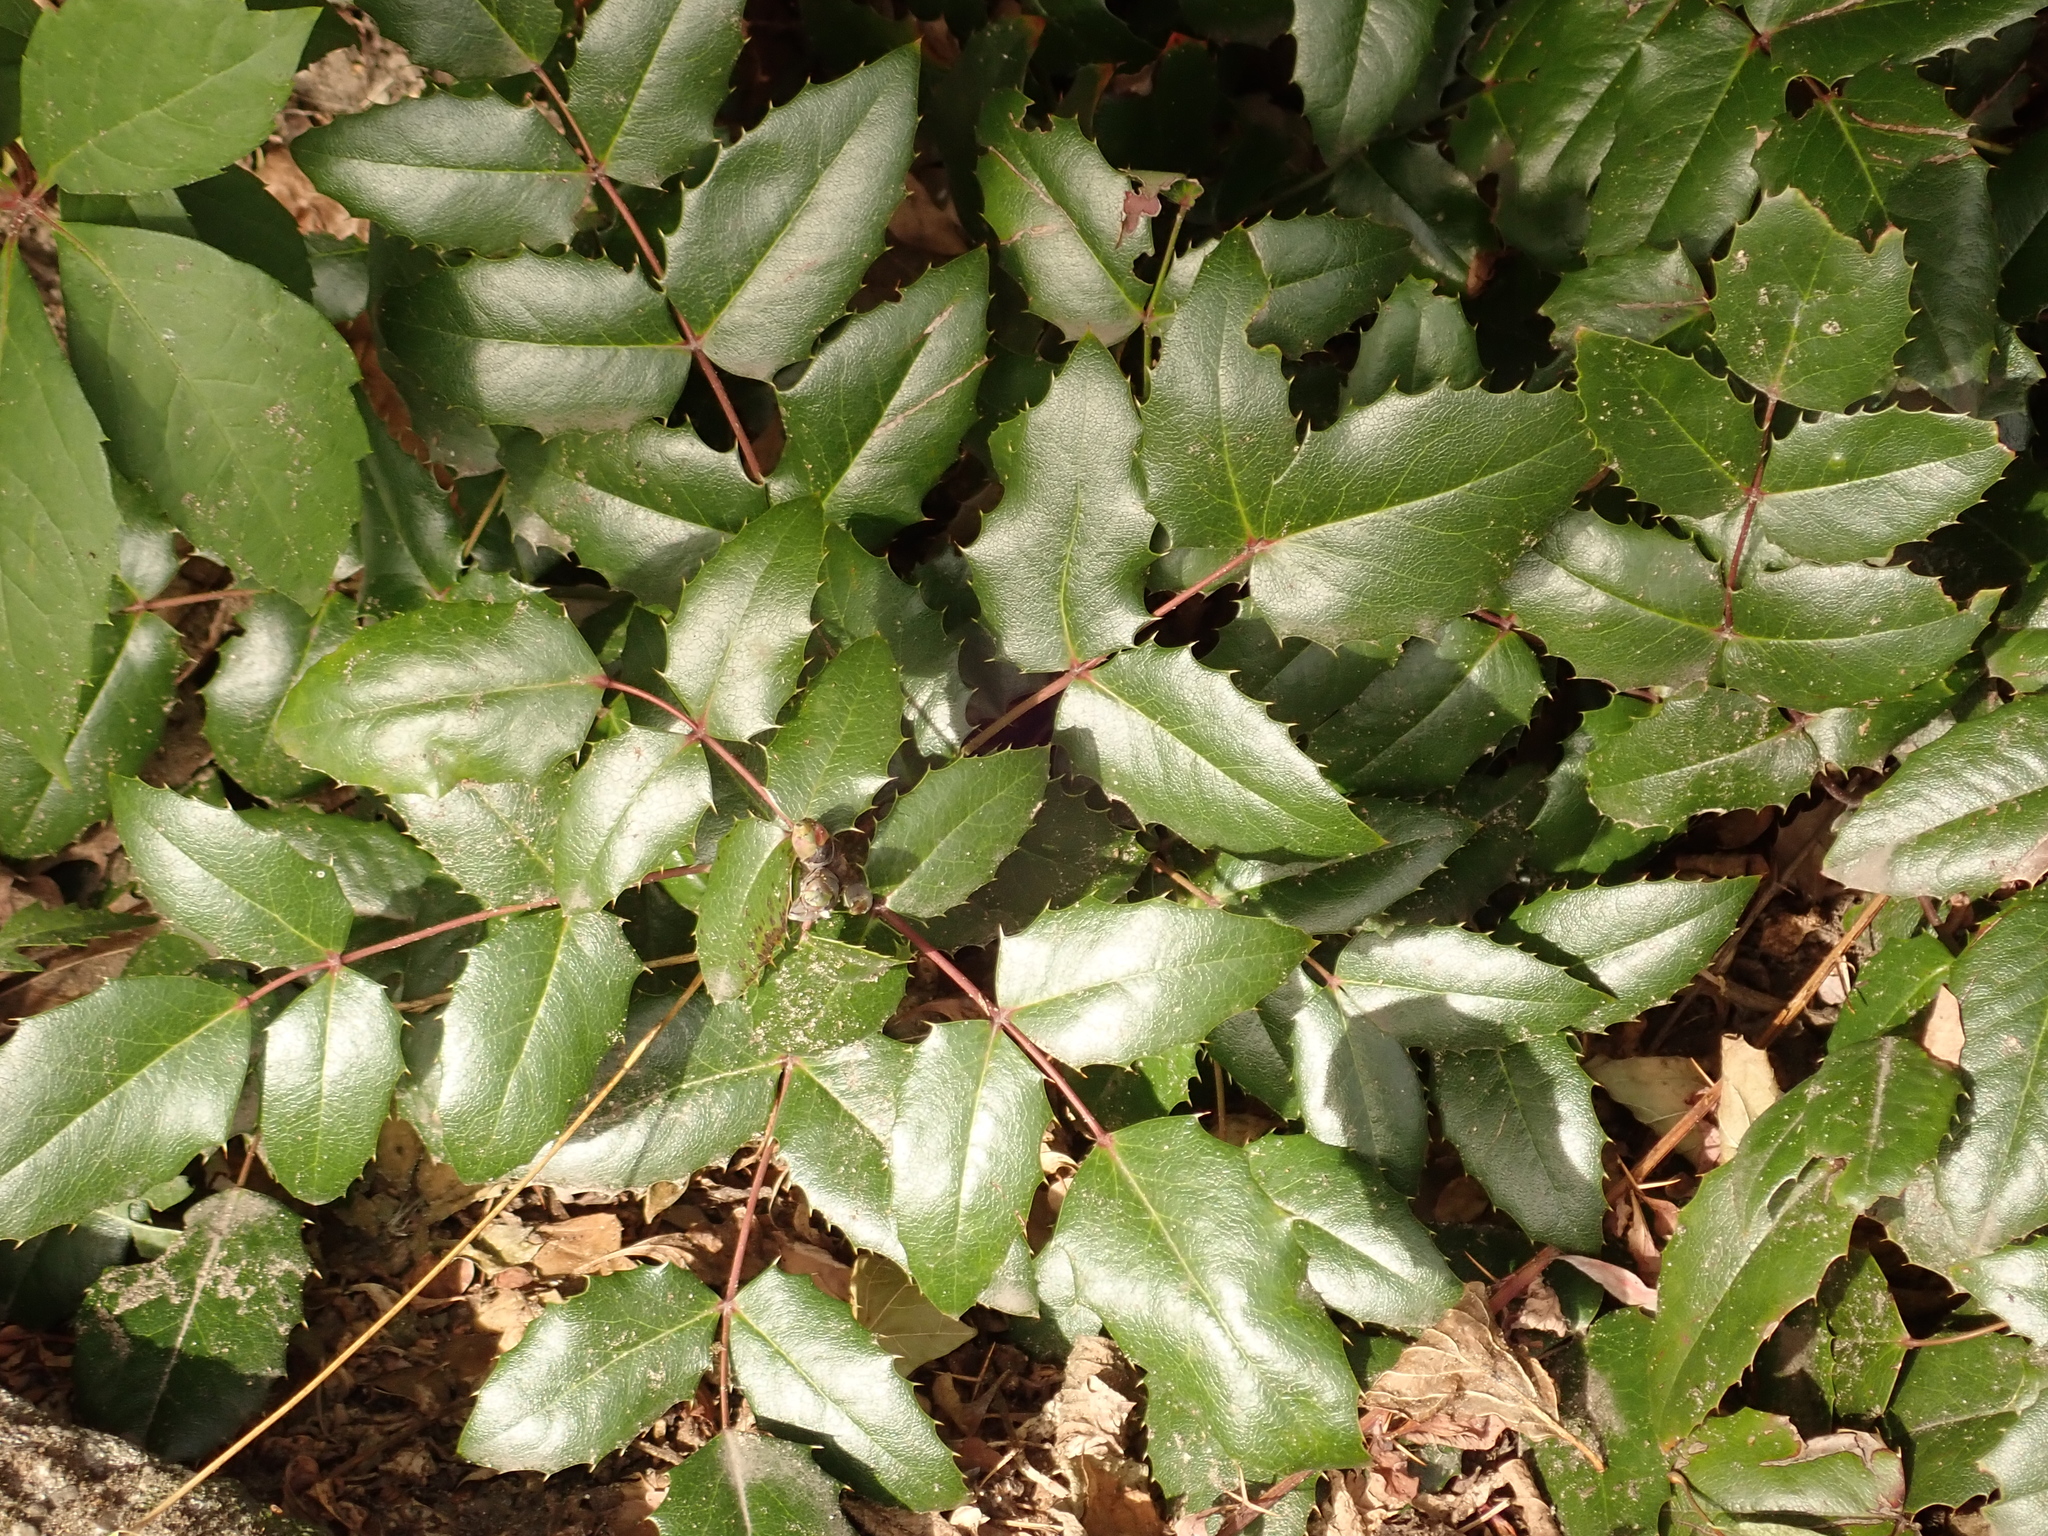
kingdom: Plantae
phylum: Tracheophyta
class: Magnoliopsida
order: Ranunculales
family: Berberidaceae
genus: Mahonia
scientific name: Mahonia aquifolium
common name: Oregon-grape
